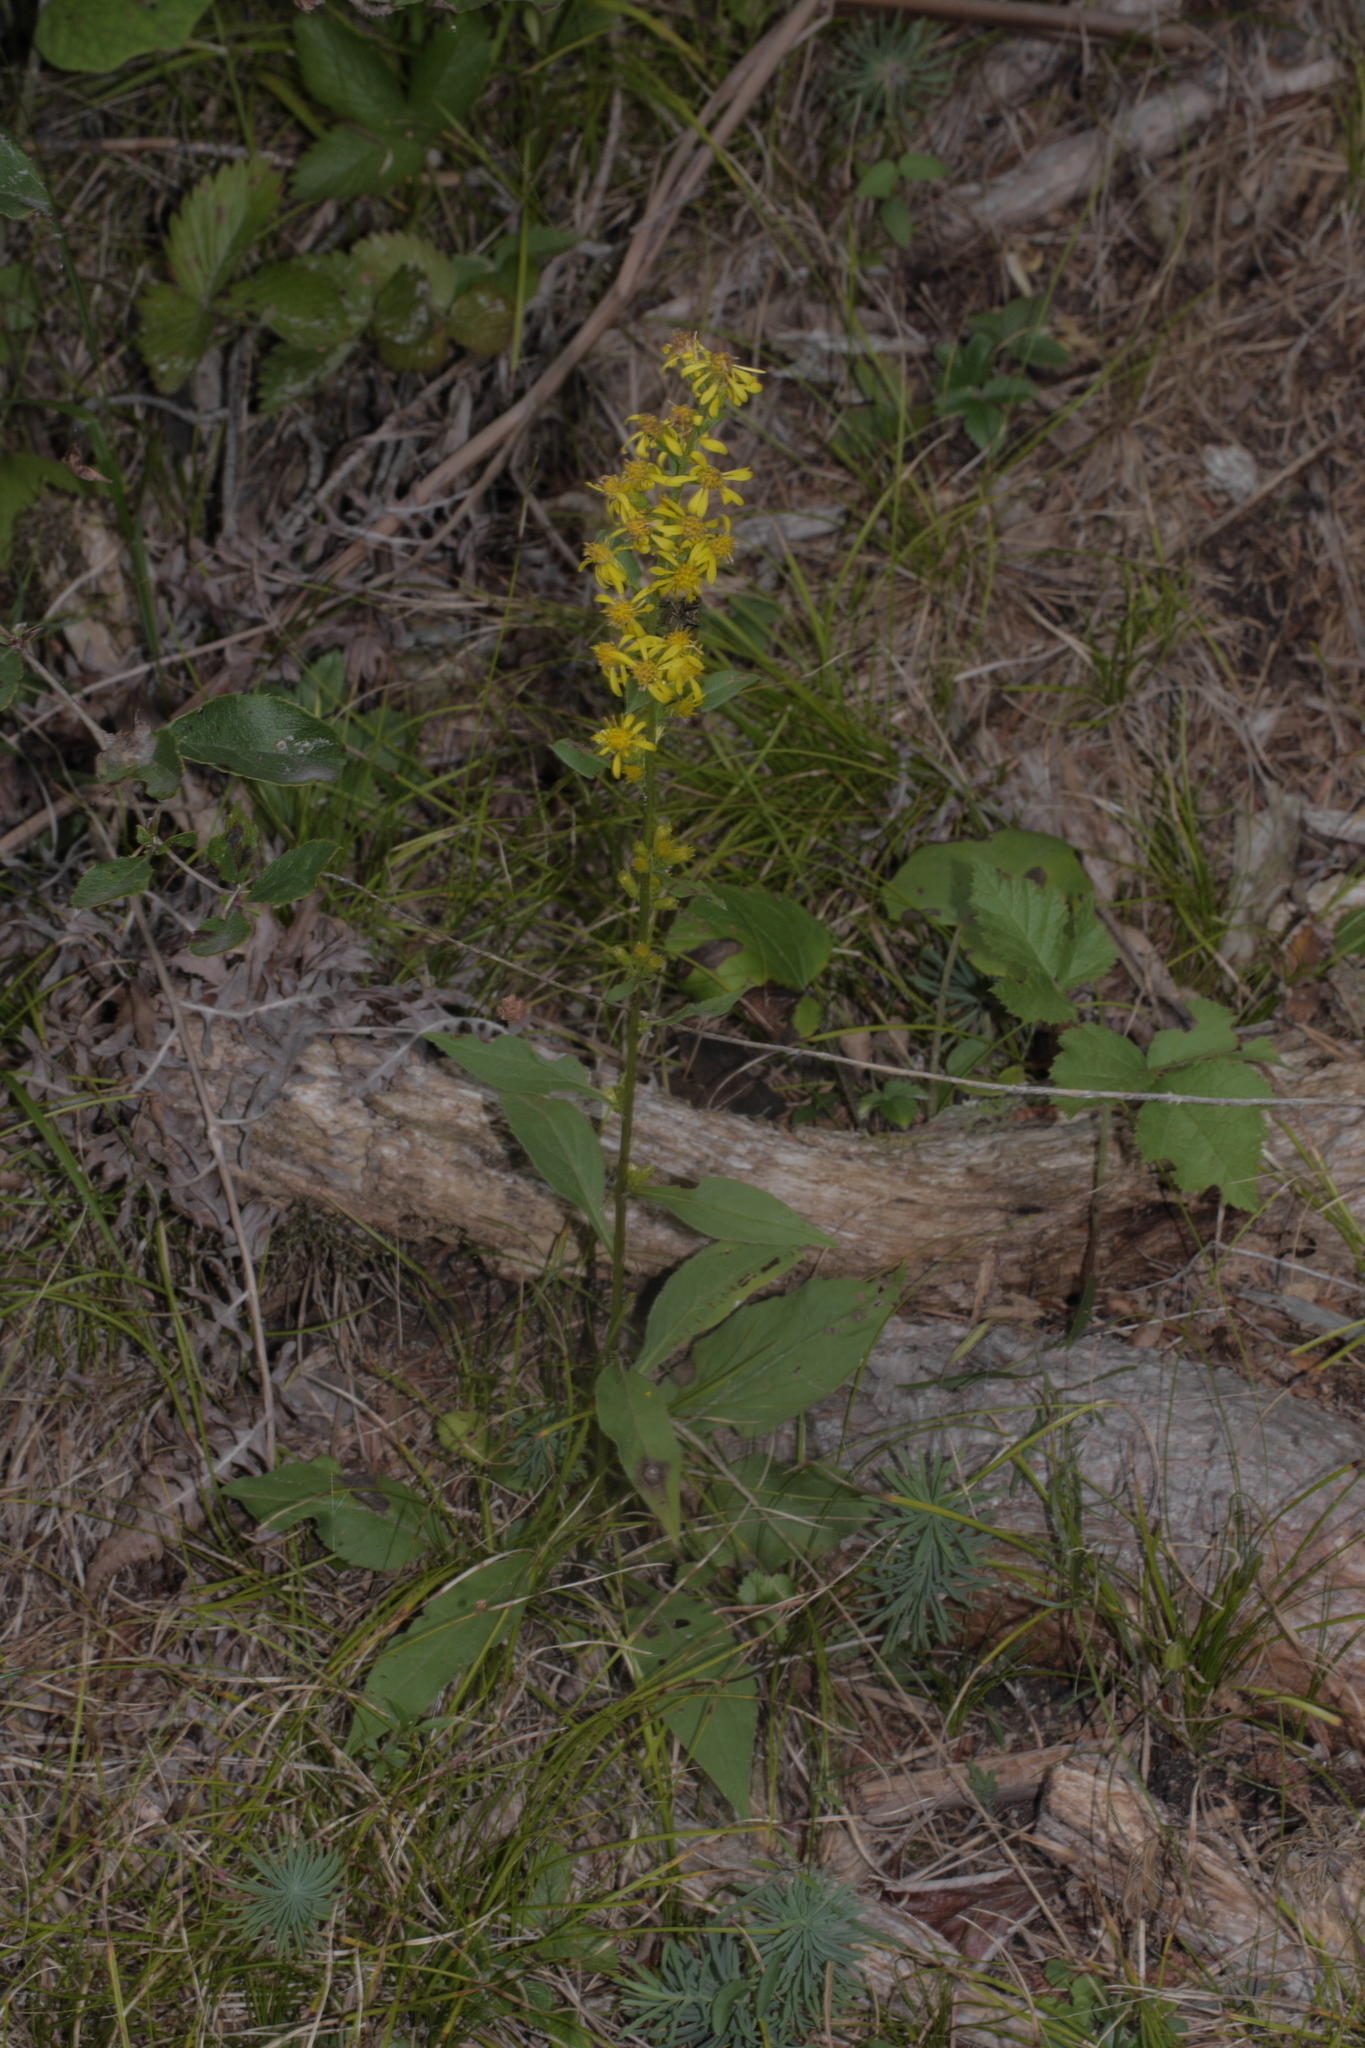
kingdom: Plantae
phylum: Tracheophyta
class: Magnoliopsida
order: Asterales
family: Asteraceae
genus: Solidago
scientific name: Solidago virgaurea
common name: Goldenrod
